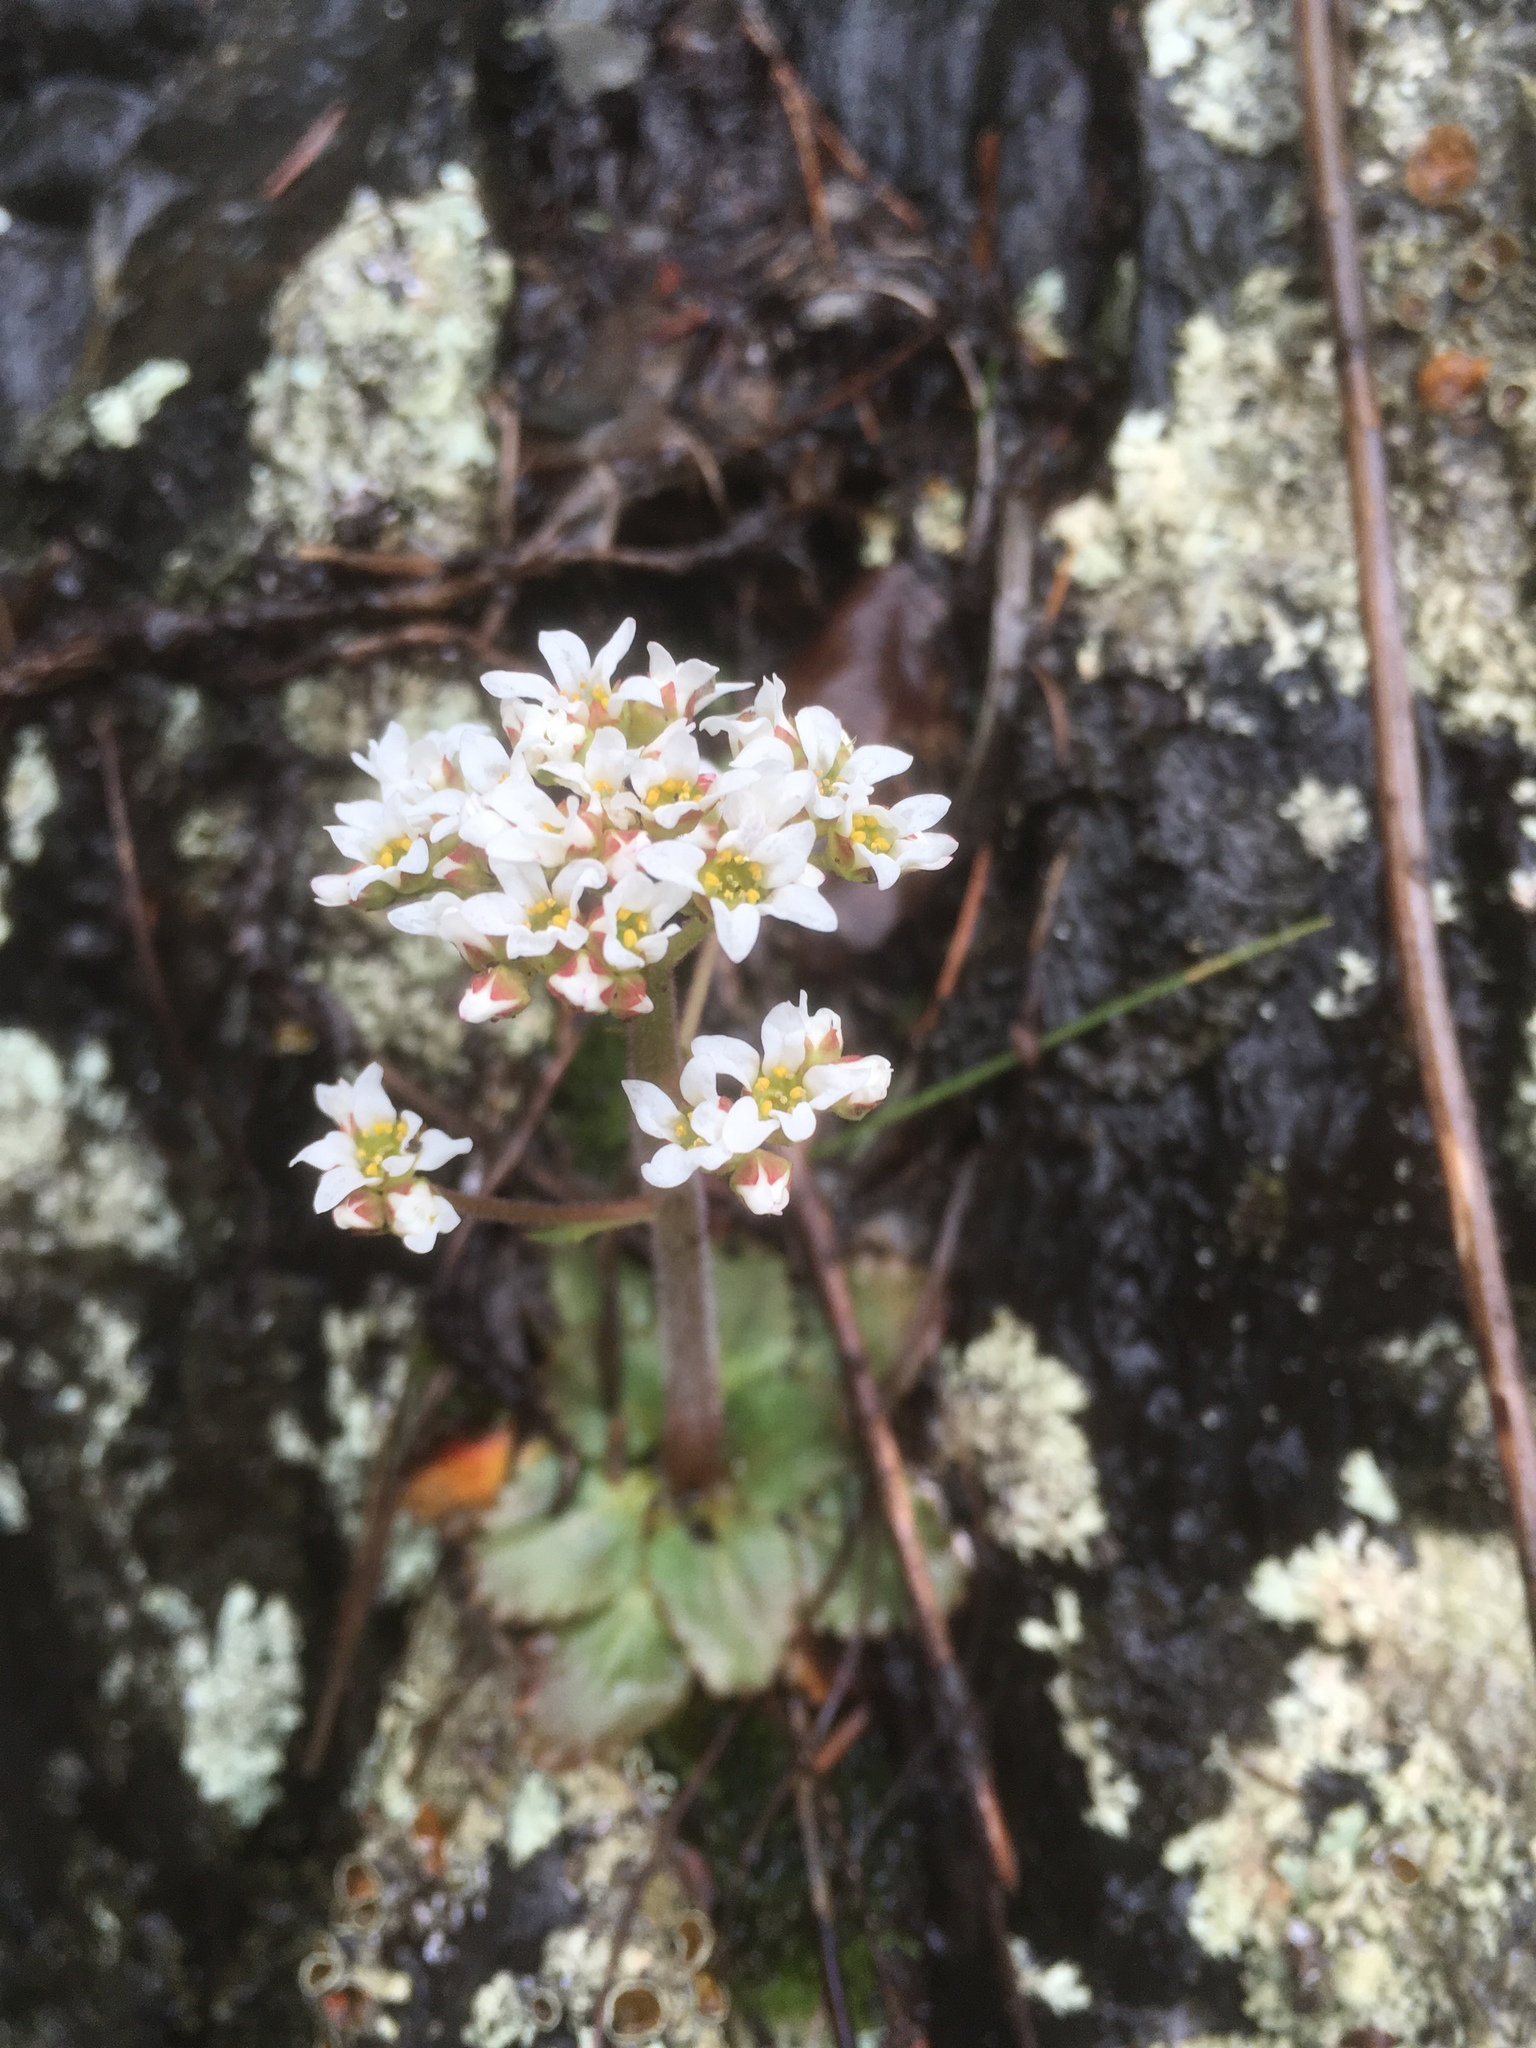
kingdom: Plantae
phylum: Tracheophyta
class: Magnoliopsida
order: Saxifragales
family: Saxifragaceae
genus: Micranthes
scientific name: Micranthes virginiensis
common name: Early saxifrage
